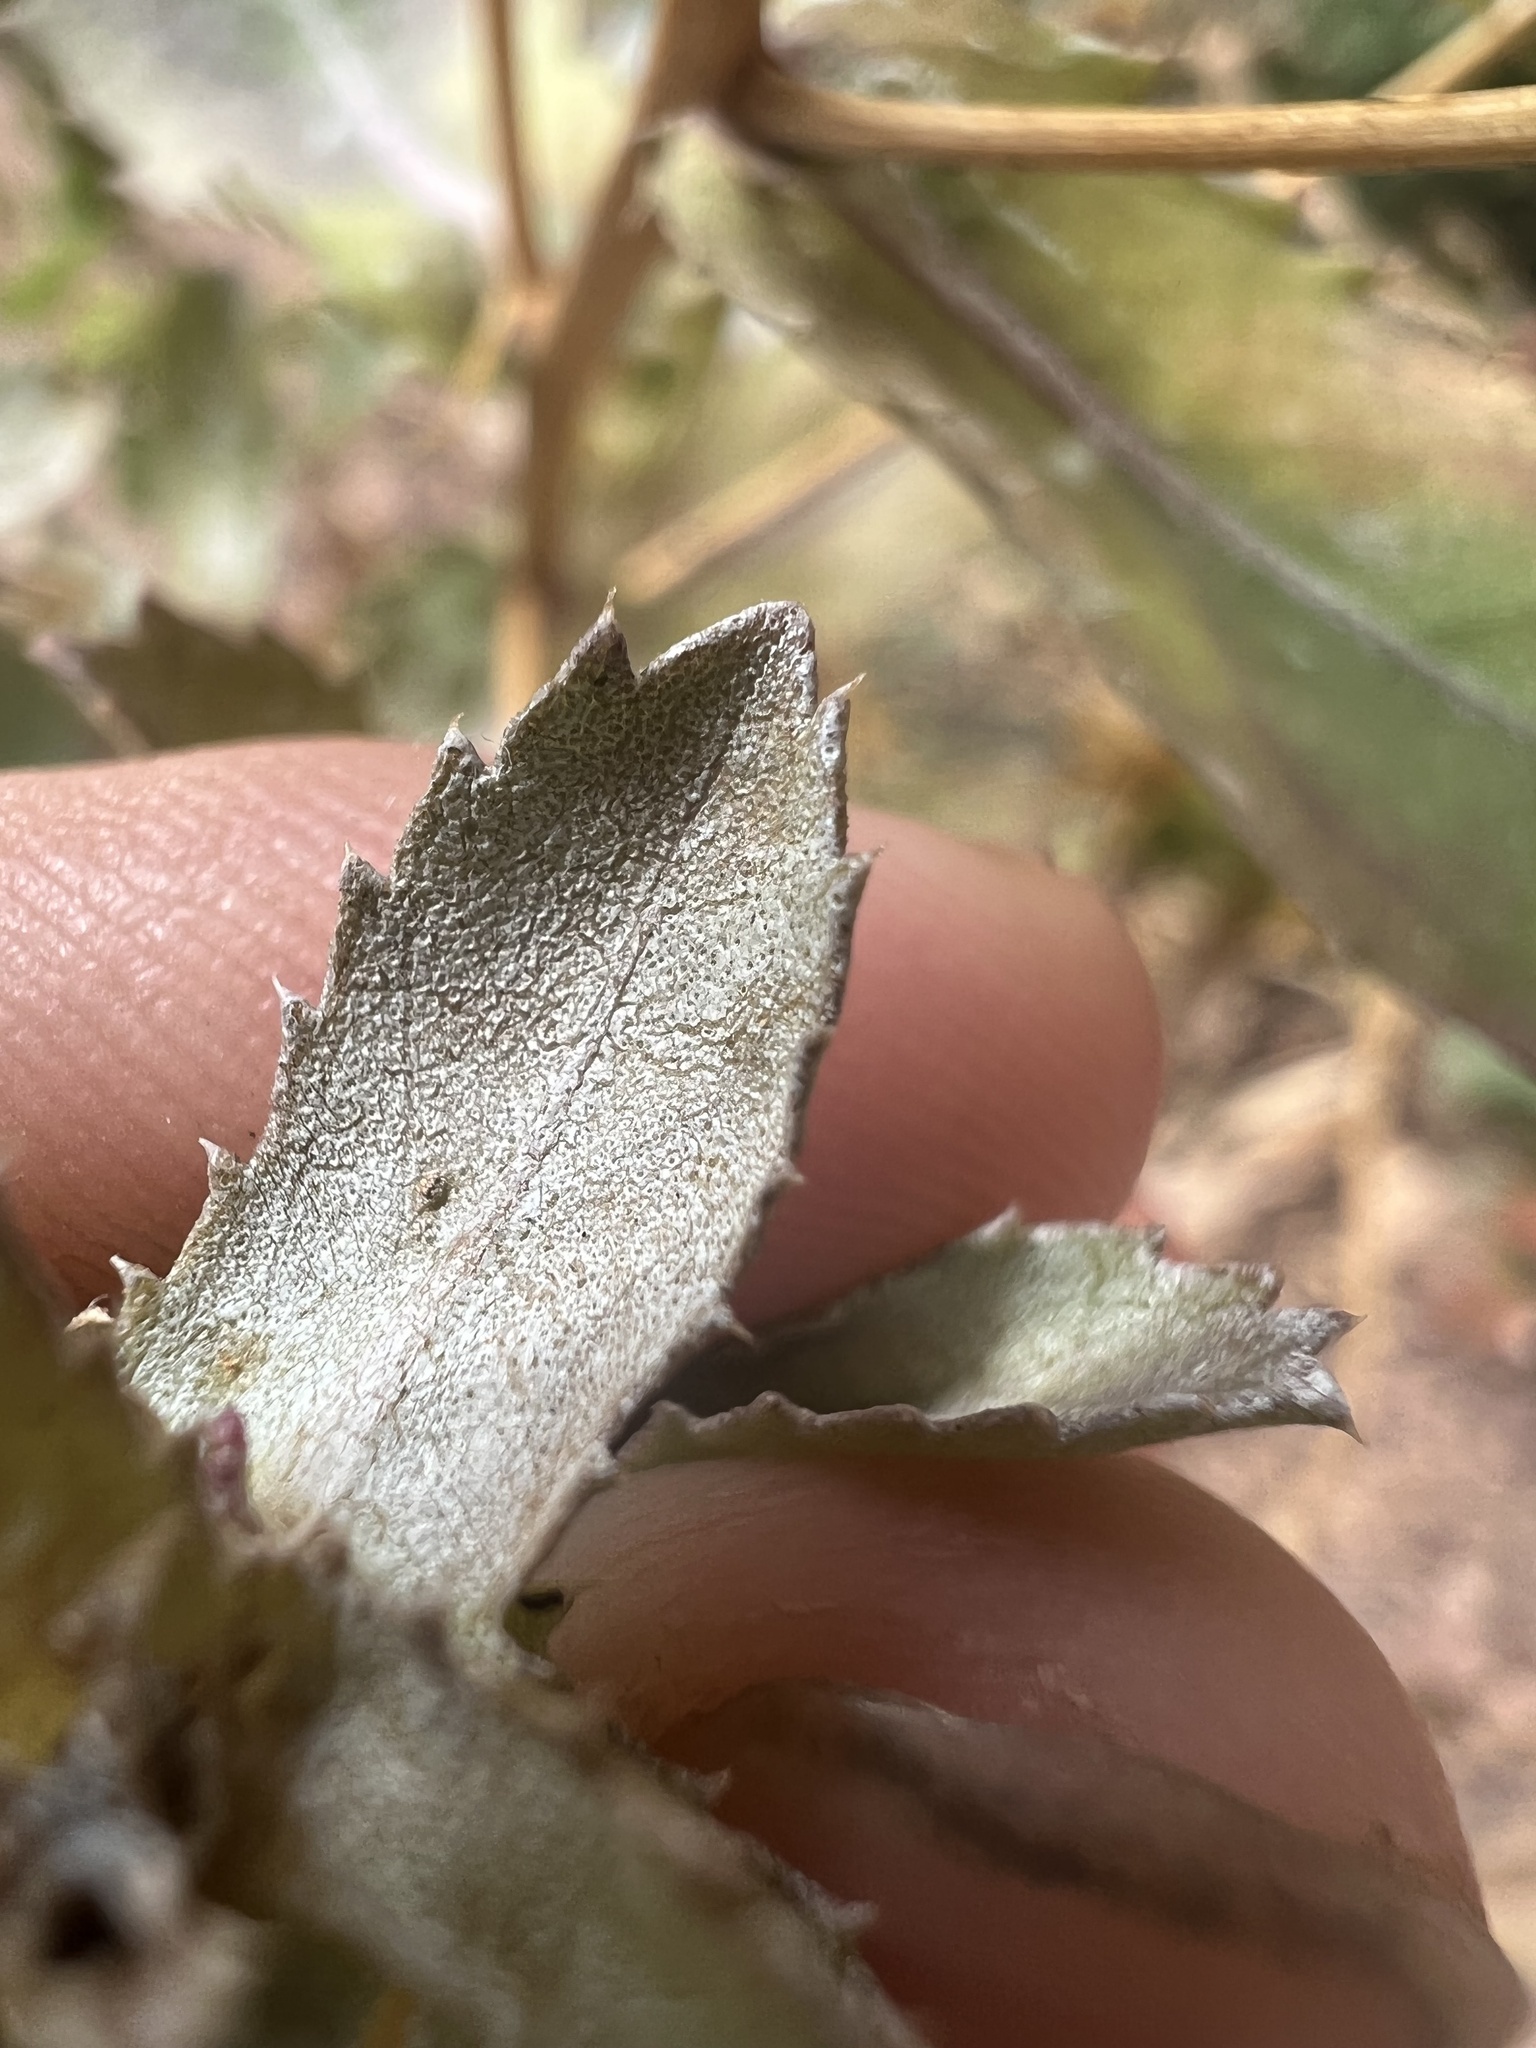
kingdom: Fungi
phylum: Ascomycota
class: Leotiomycetes
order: Helotiales
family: Erysiphaceae
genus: Golovinomyces
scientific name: Golovinomyces asterum
